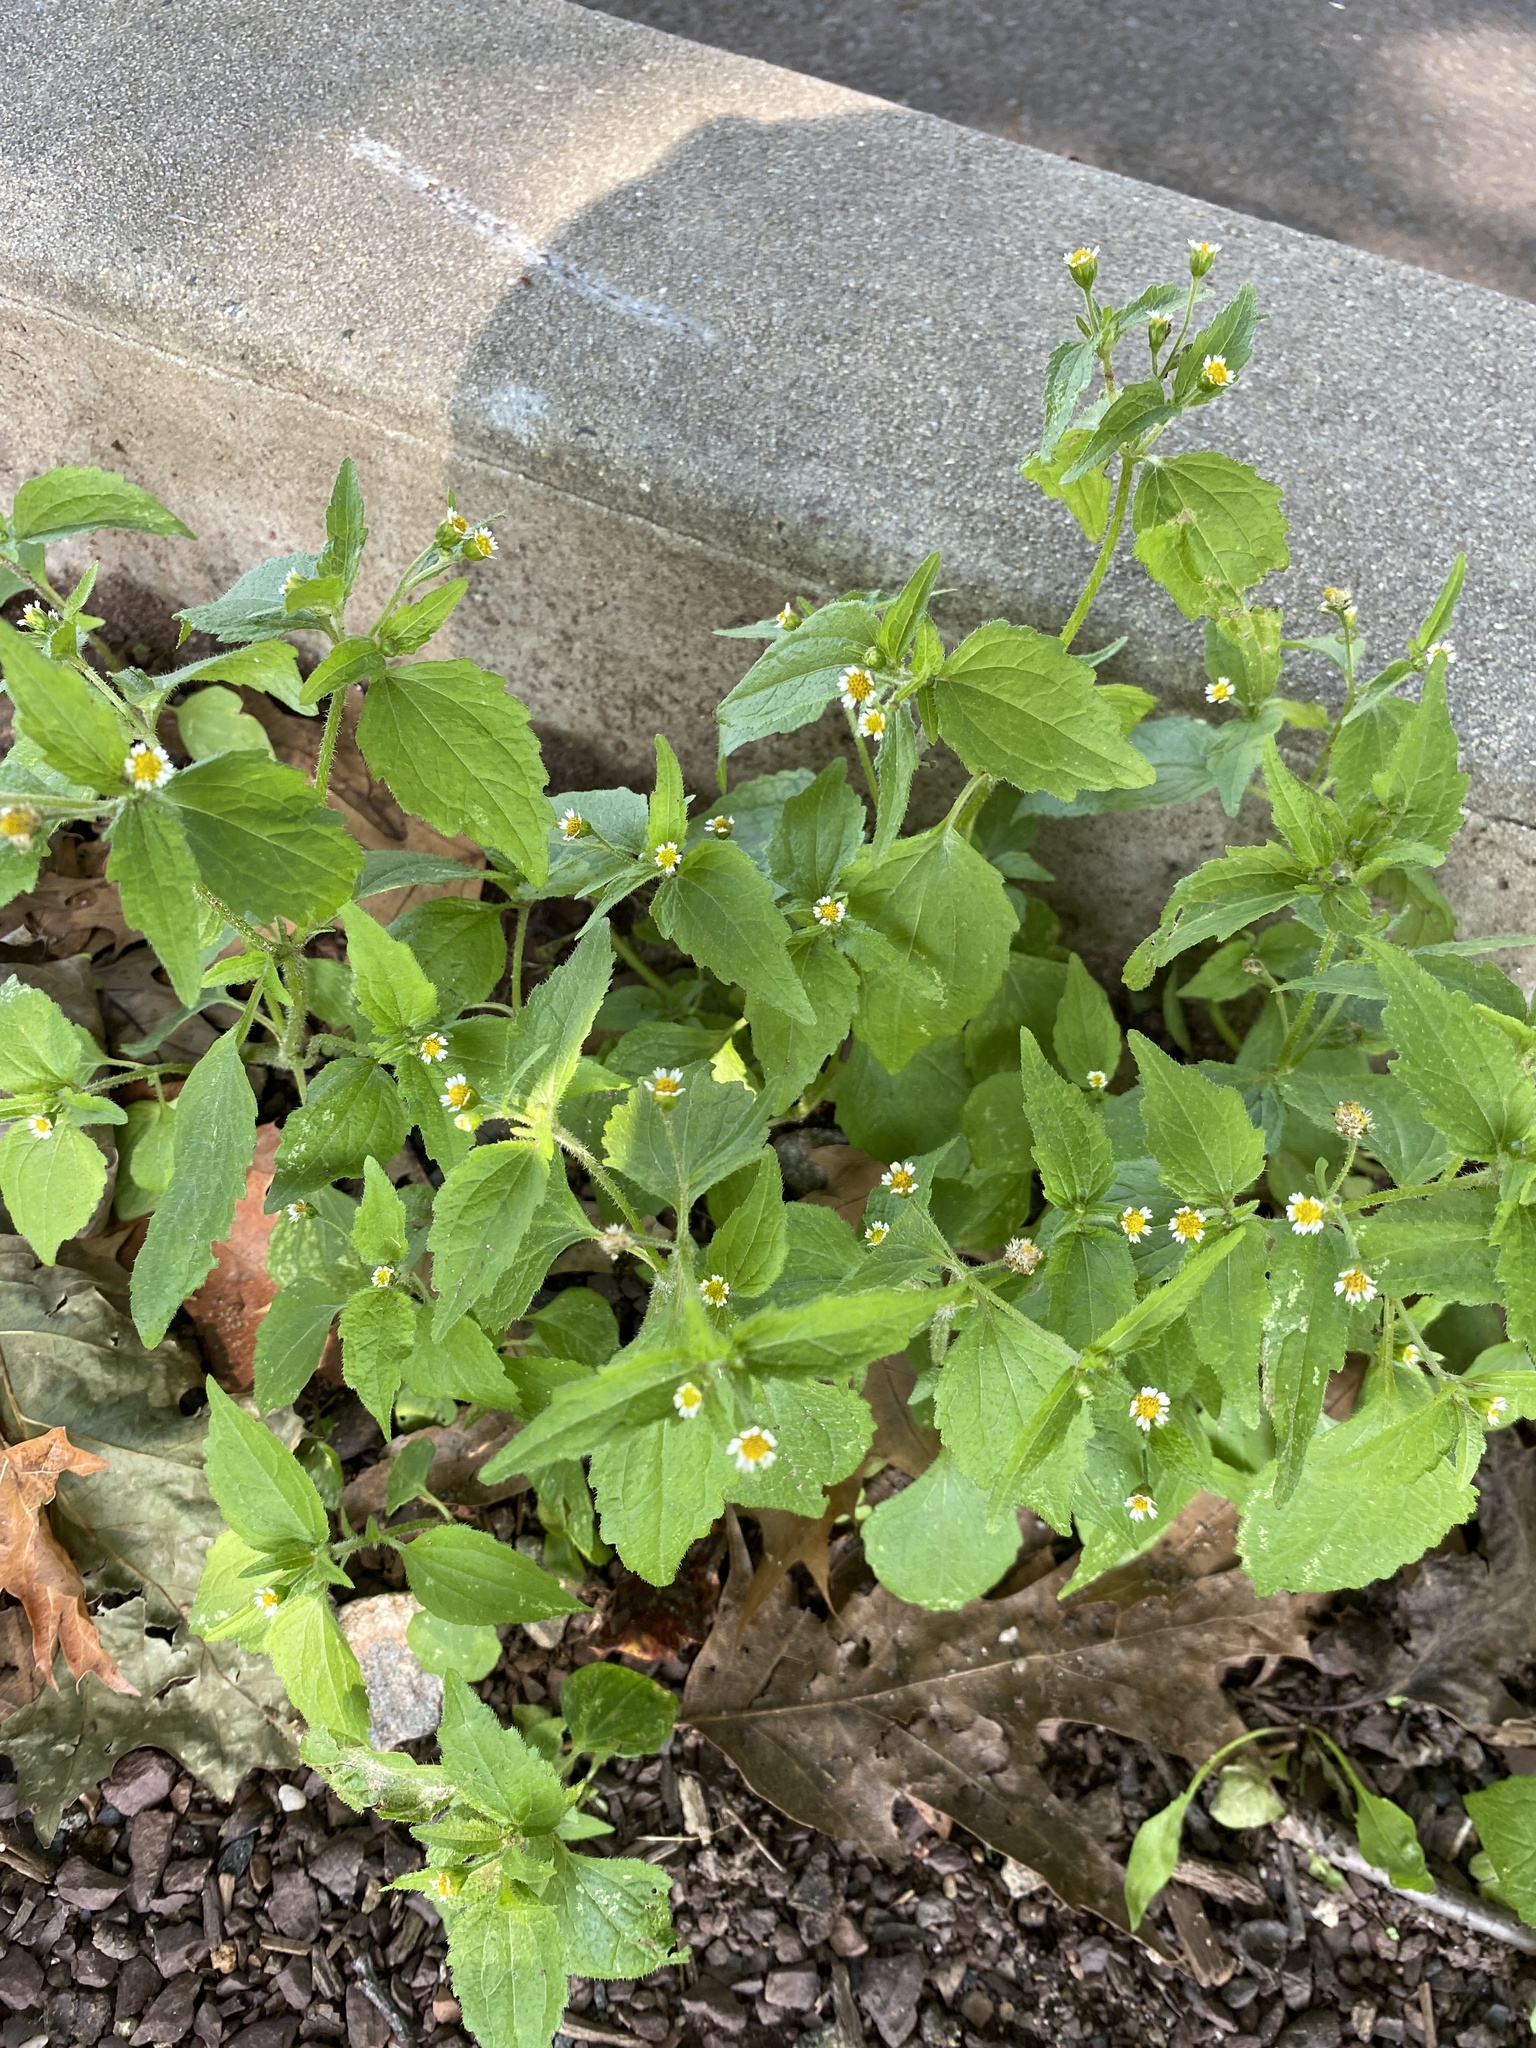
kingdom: Plantae
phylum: Tracheophyta
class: Magnoliopsida
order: Asterales
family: Asteraceae
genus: Galinsoga
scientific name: Galinsoga quadriradiata
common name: Shaggy soldier
